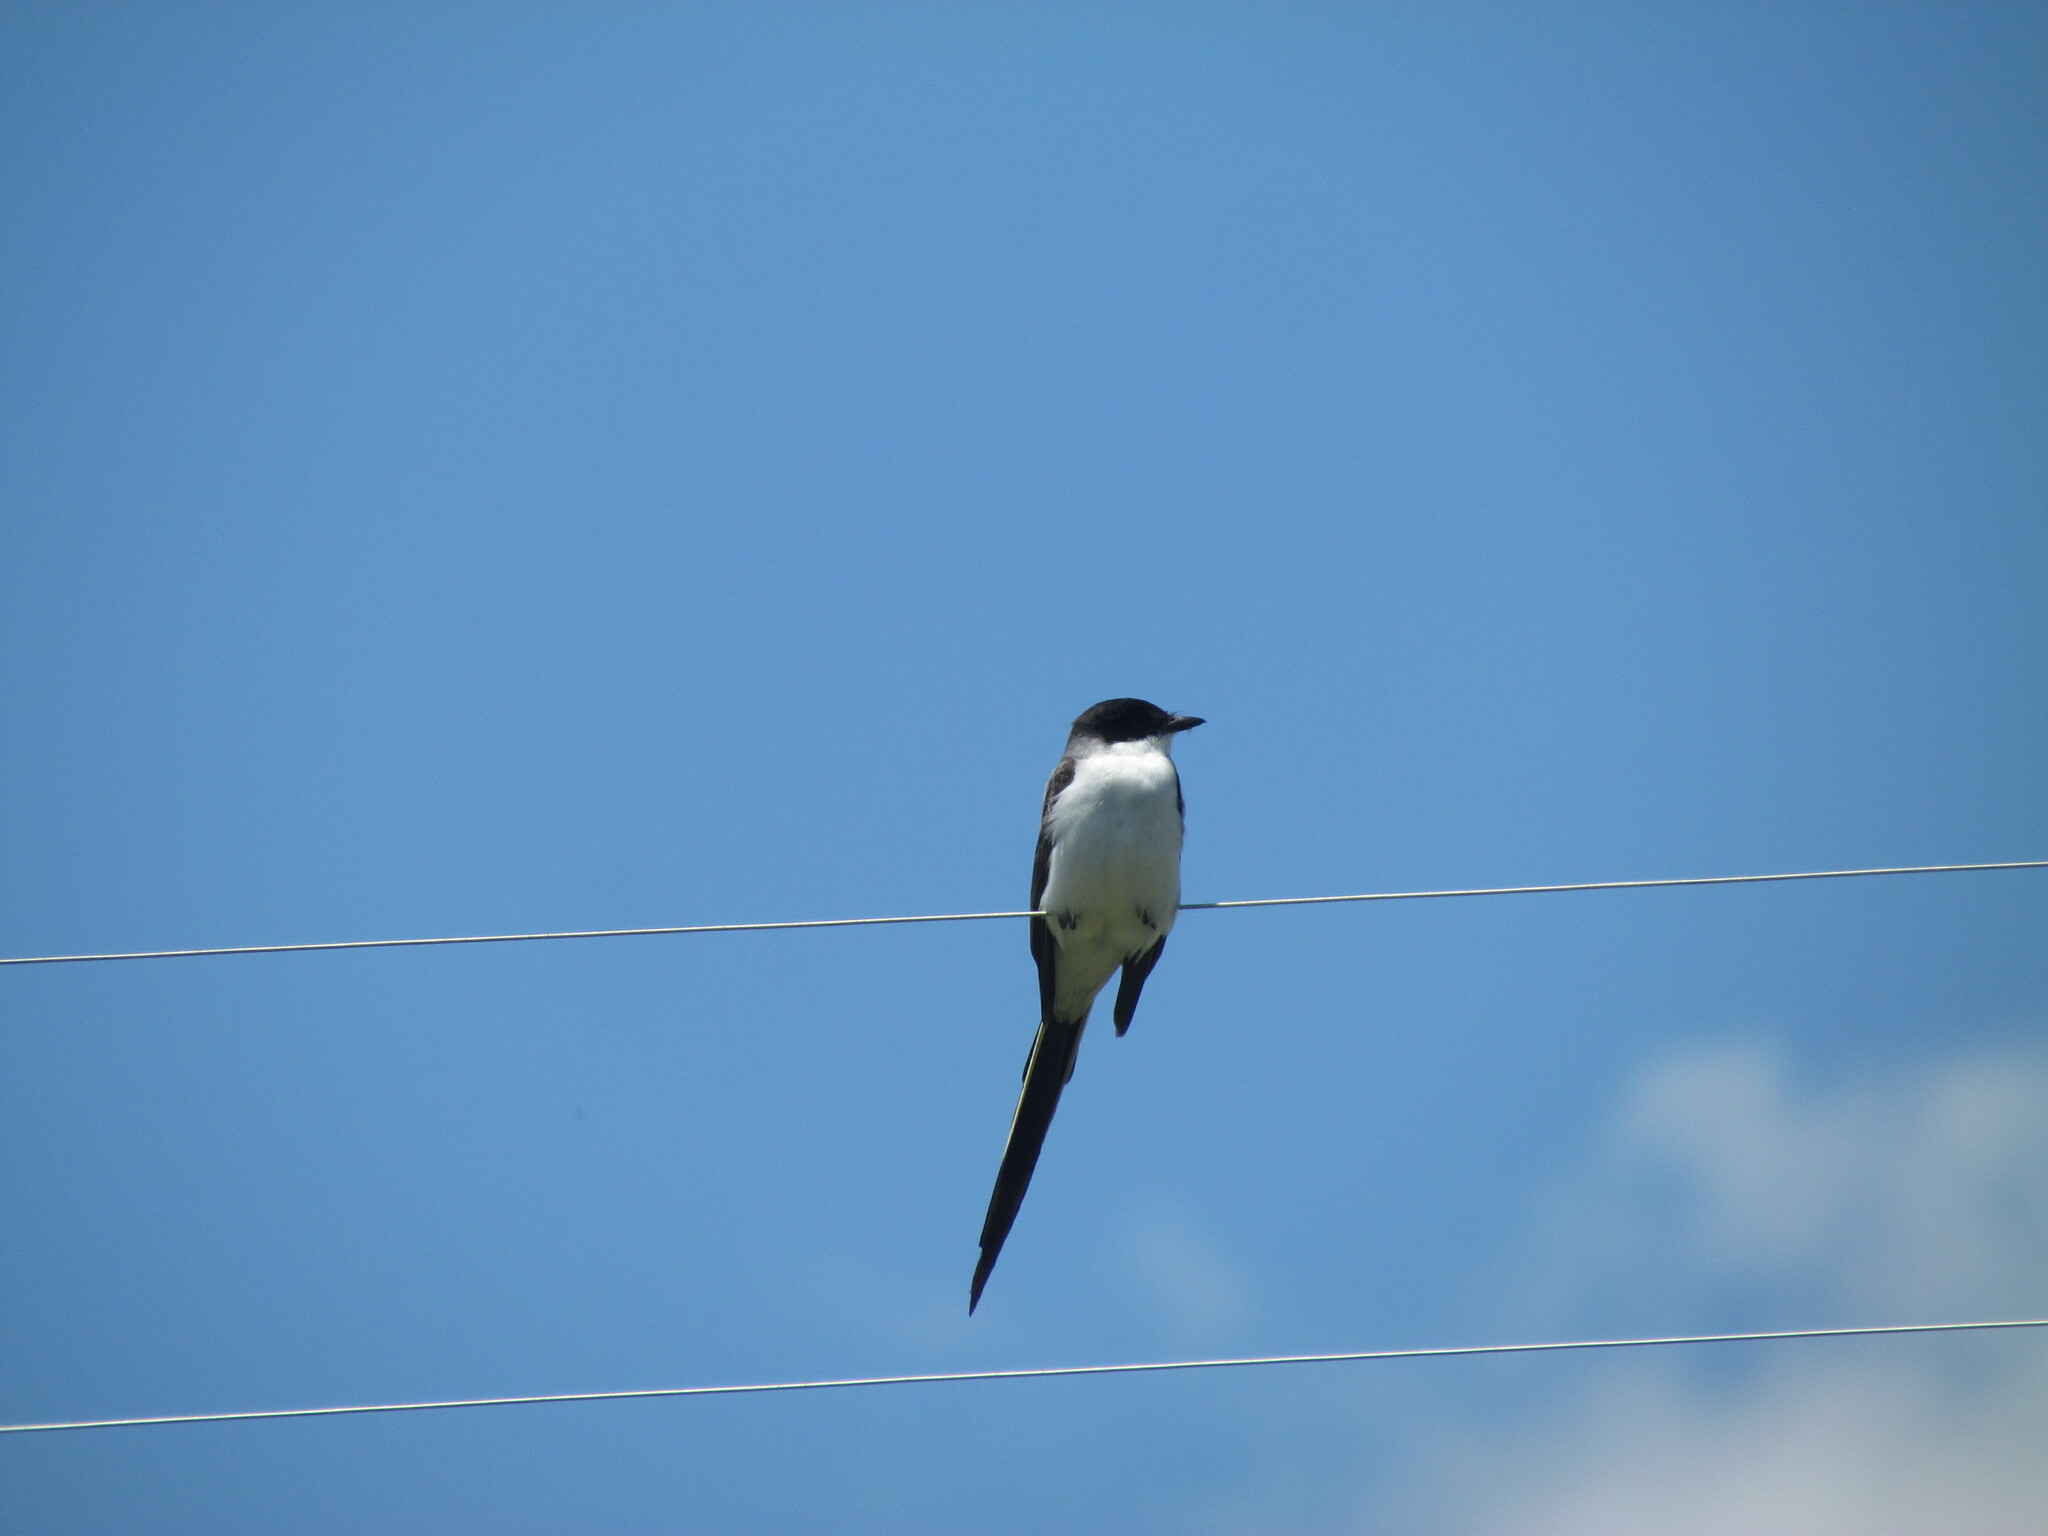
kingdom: Animalia
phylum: Chordata
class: Aves
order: Passeriformes
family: Tyrannidae
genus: Tyrannus
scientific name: Tyrannus savana
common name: Fork-tailed flycatcher
